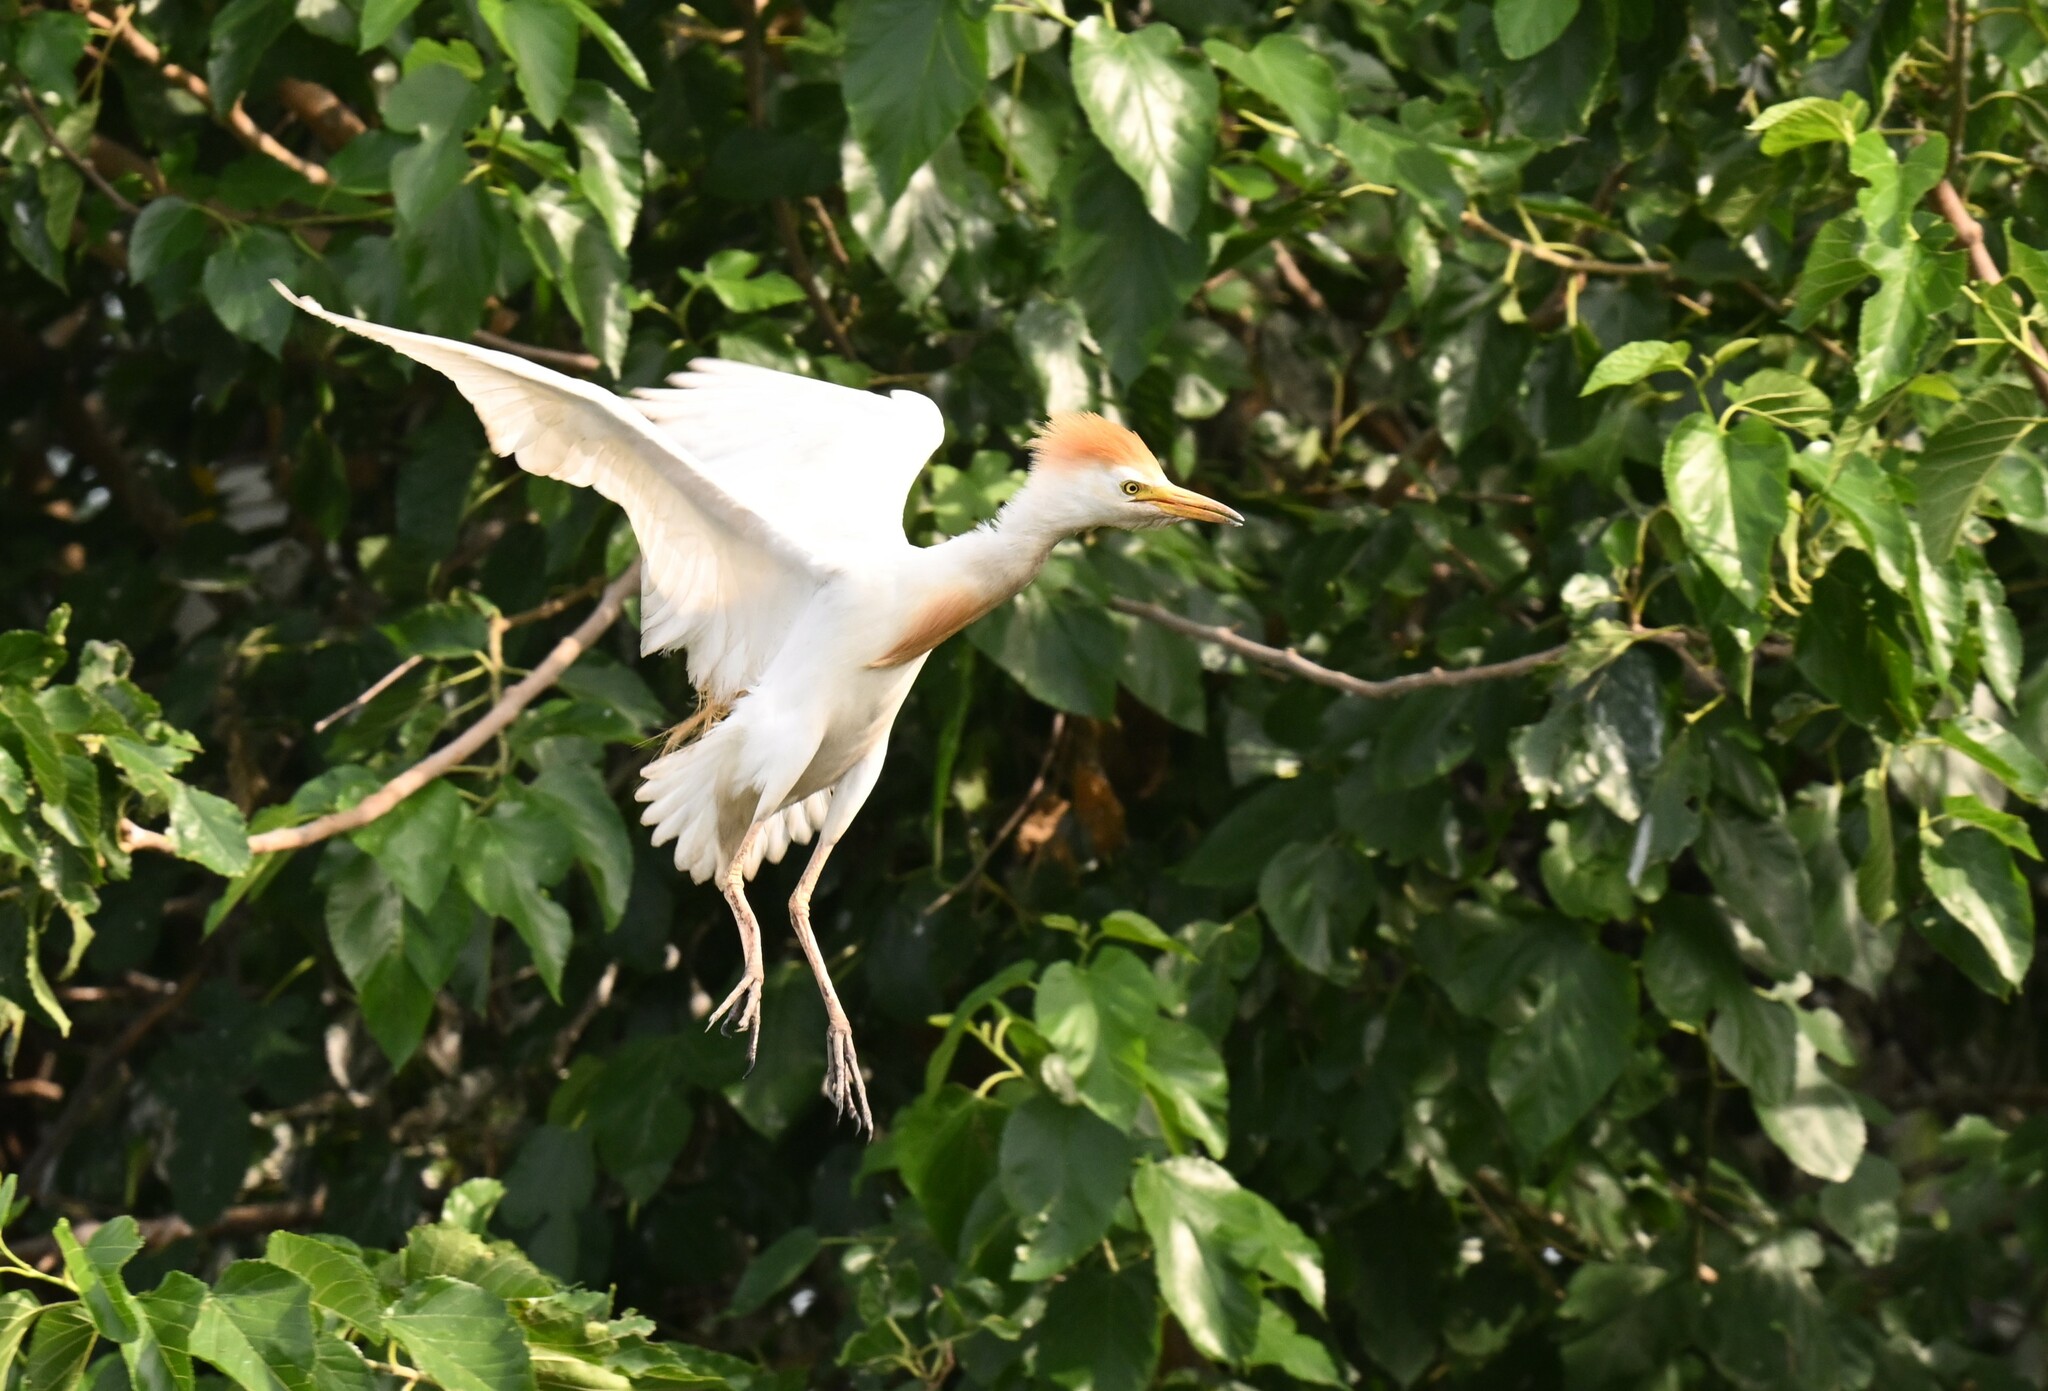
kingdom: Animalia
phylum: Chordata
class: Aves
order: Pelecaniformes
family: Ardeidae
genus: Bubulcus
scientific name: Bubulcus ibis
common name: Cattle egret
